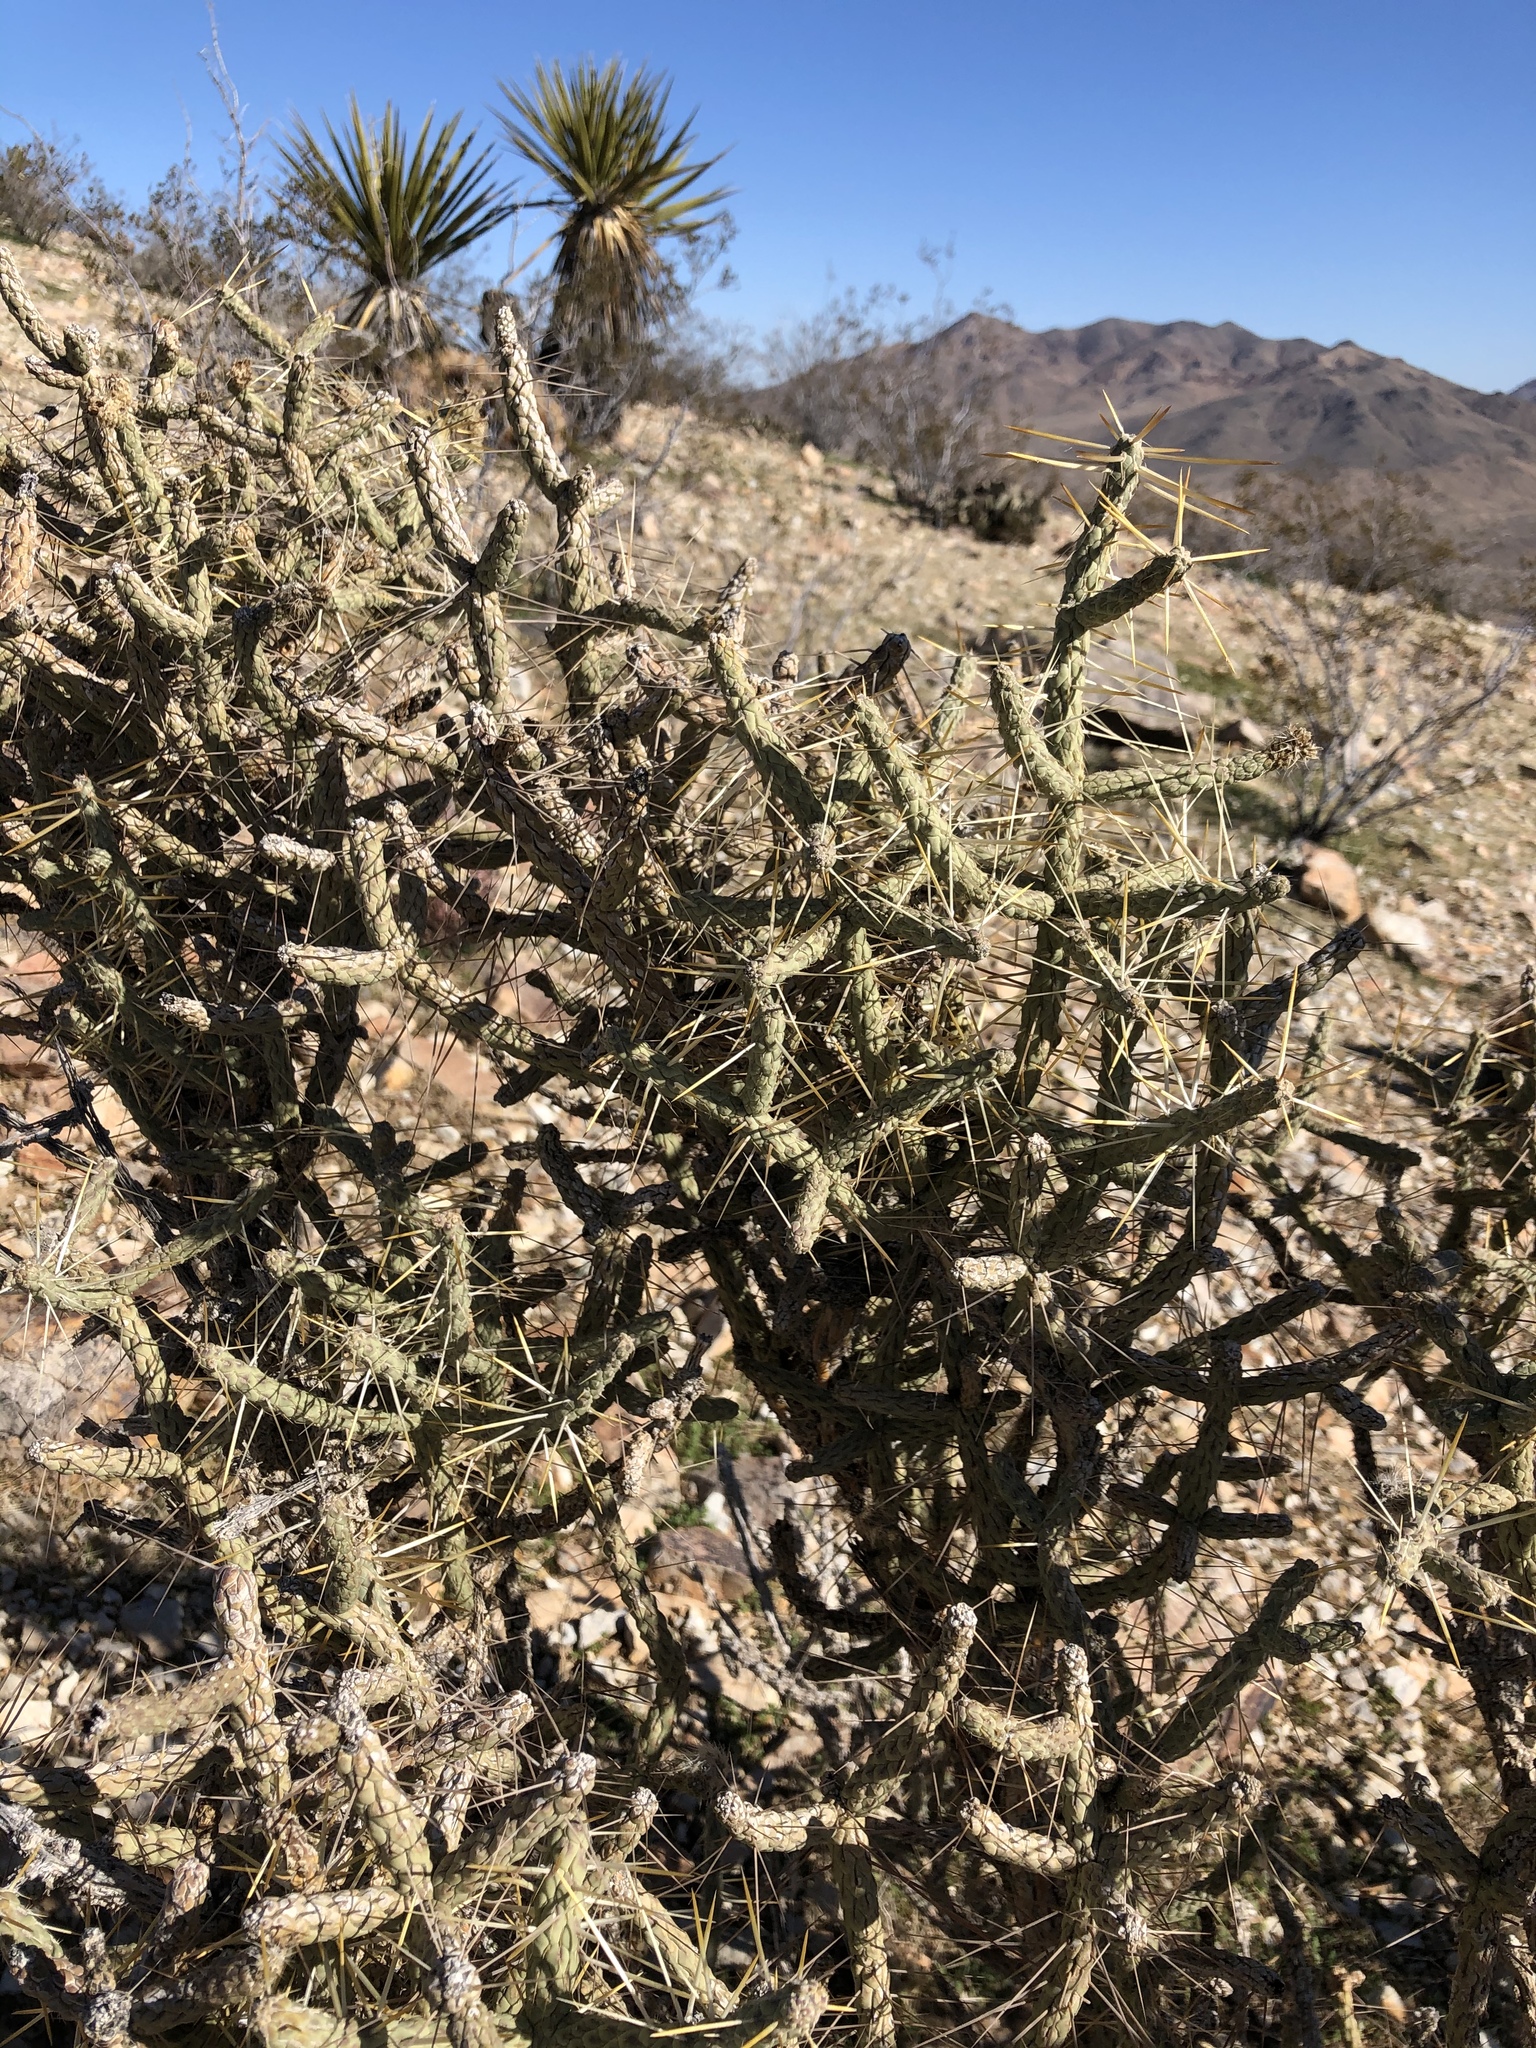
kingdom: Plantae
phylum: Tracheophyta
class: Magnoliopsida
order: Caryophyllales
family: Cactaceae
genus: Cylindropuntia
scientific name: Cylindropuntia ramosissima
